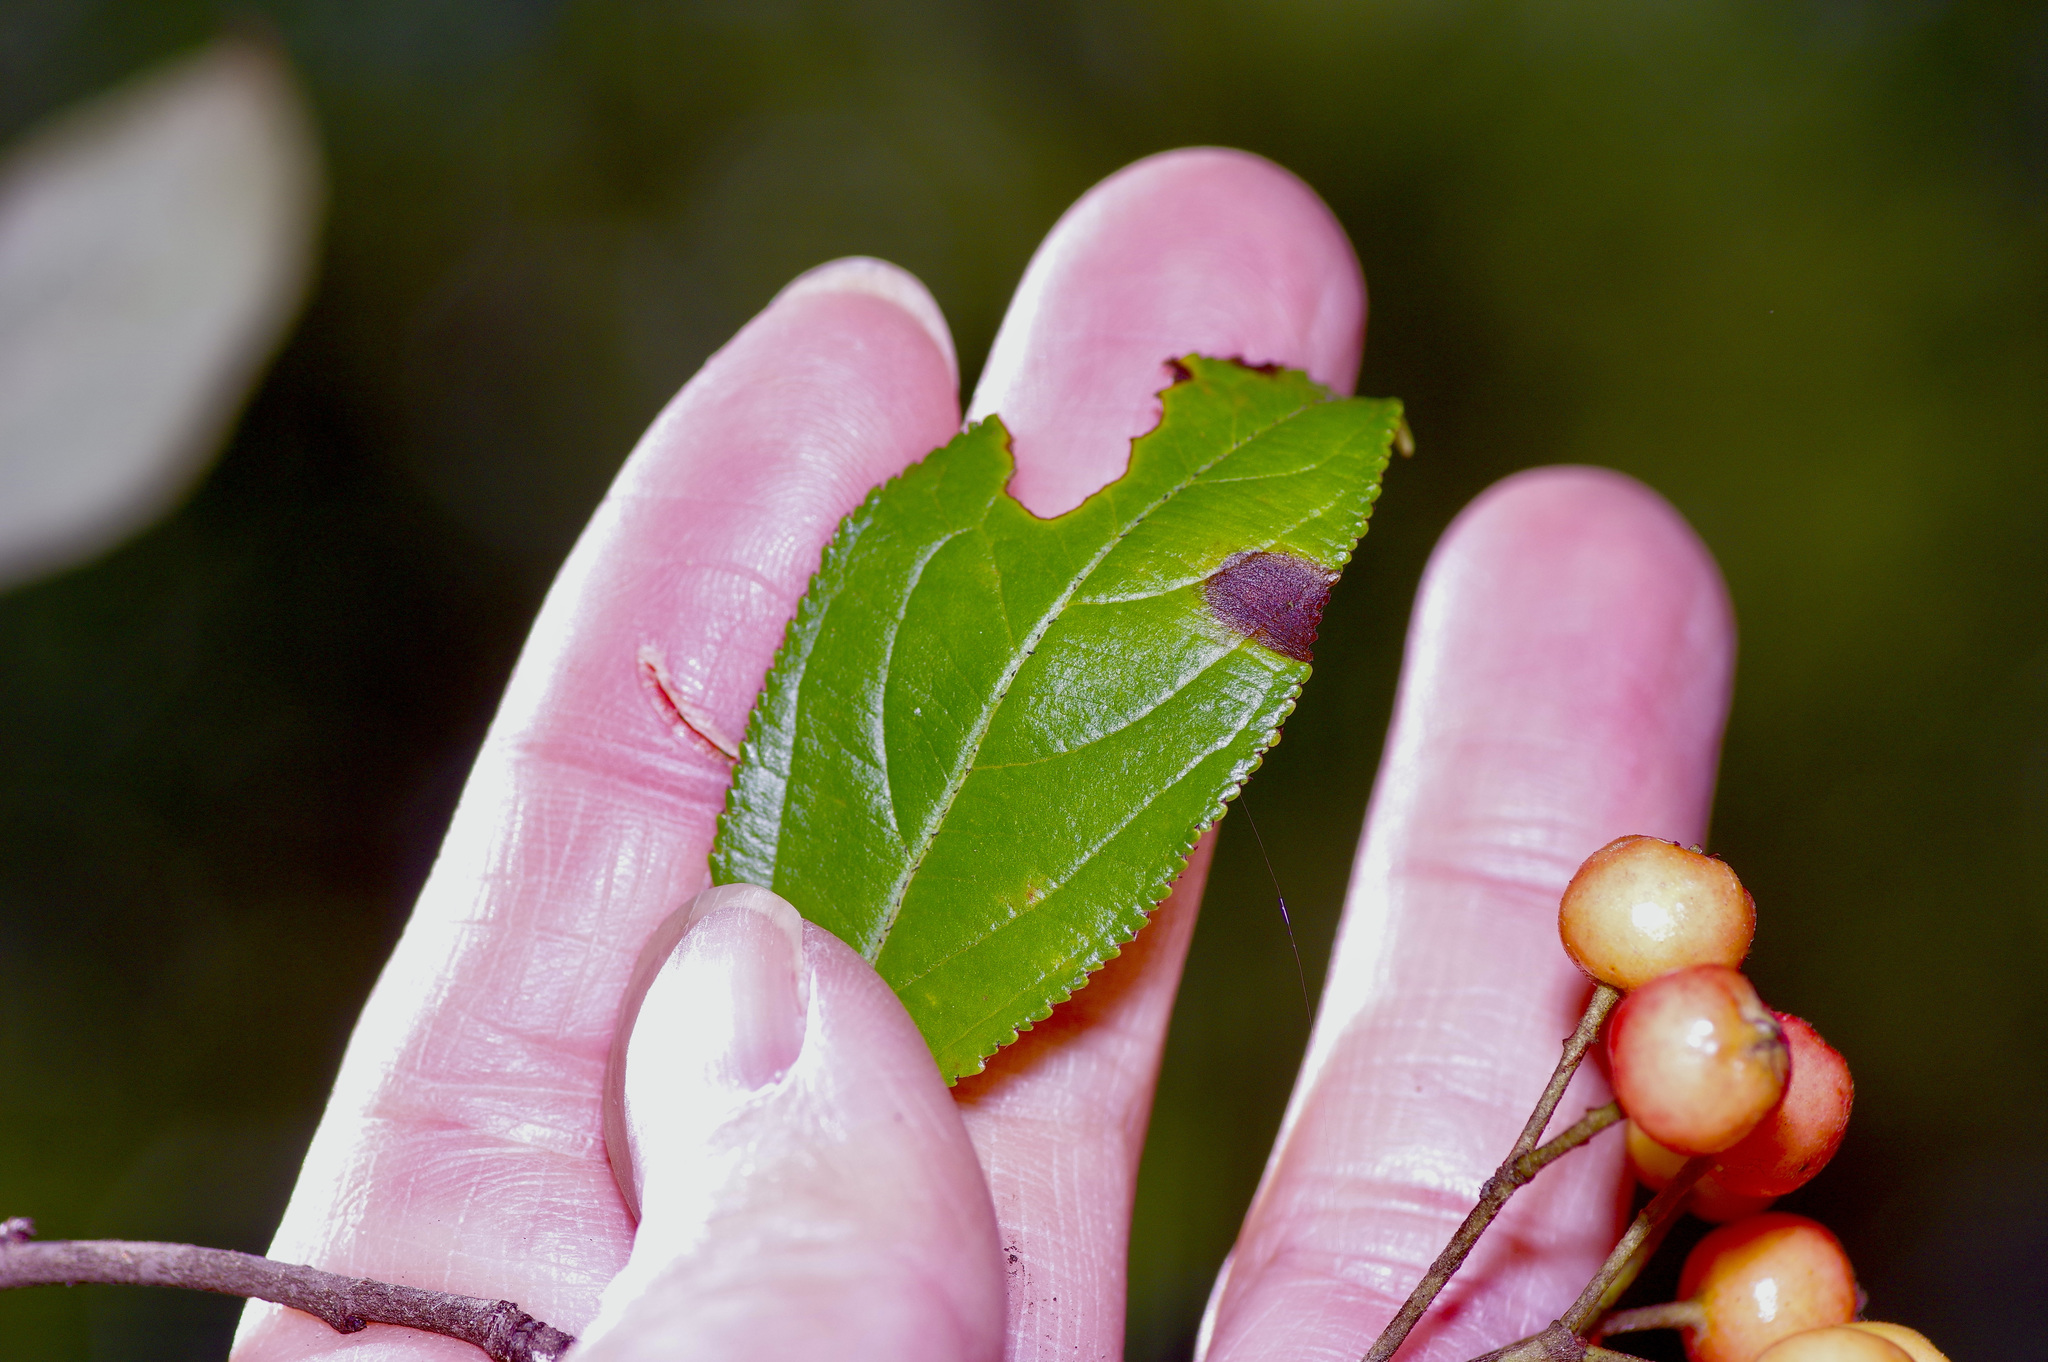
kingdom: Plantae
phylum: Tracheophyta
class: Magnoliopsida
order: Rosales
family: Rosaceae
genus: Aronia
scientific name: Aronia arbutifolia
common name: Red chokeberry
